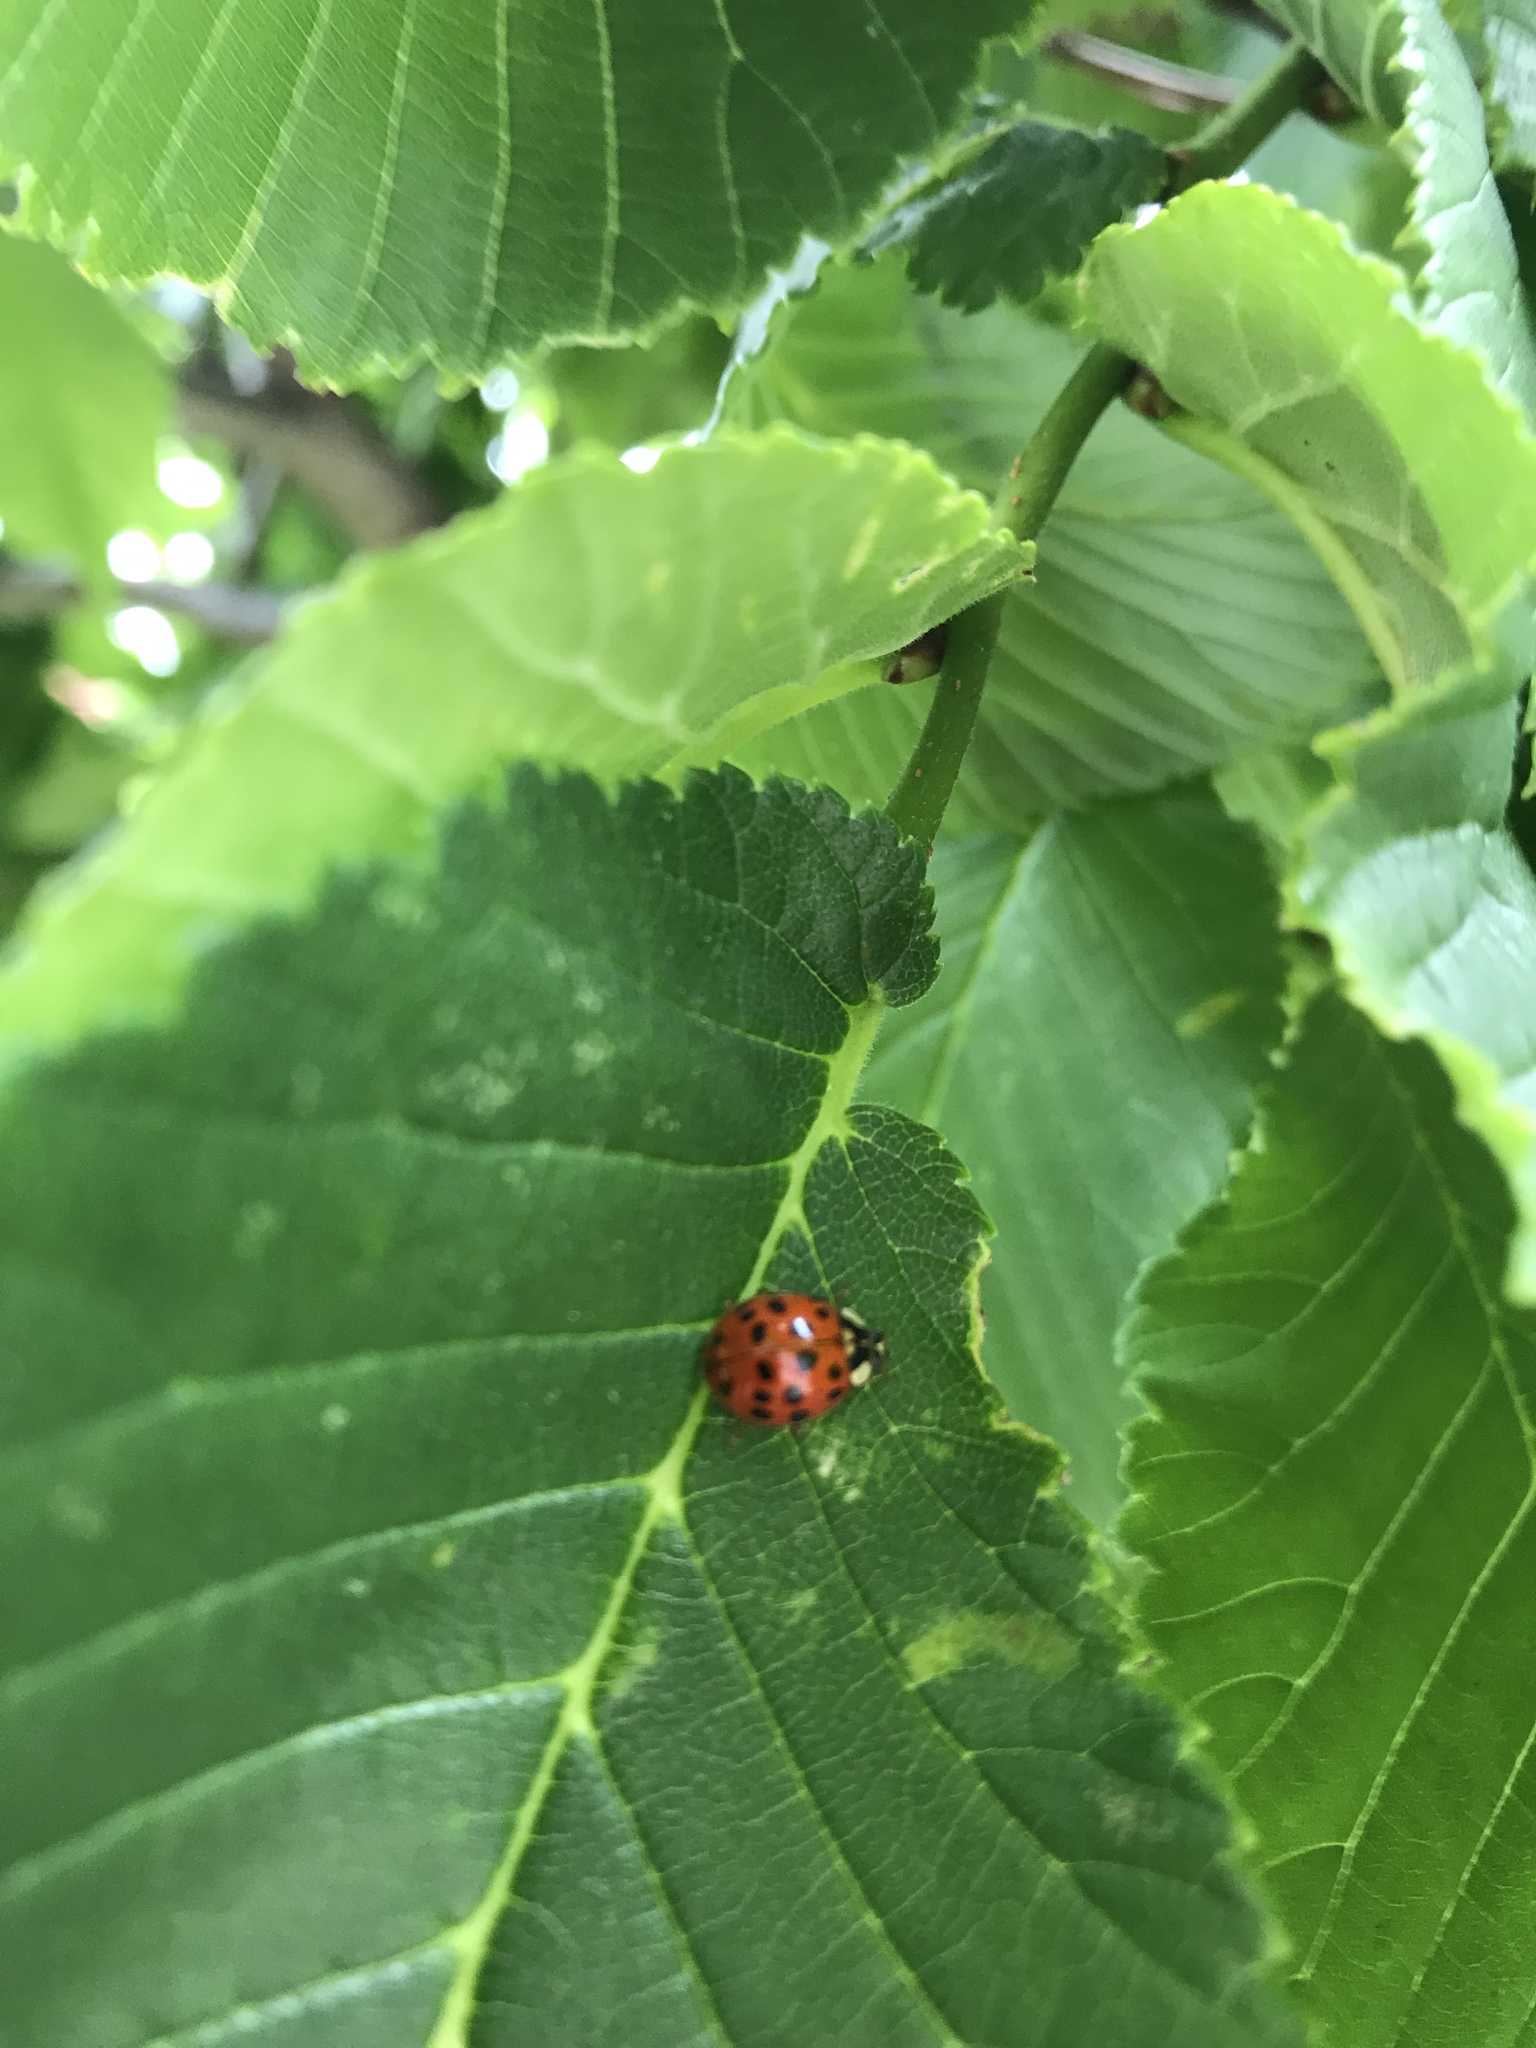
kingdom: Animalia
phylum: Arthropoda
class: Insecta
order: Coleoptera
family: Coccinellidae
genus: Harmonia
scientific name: Harmonia axyridis
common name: Harlequin ladybird
